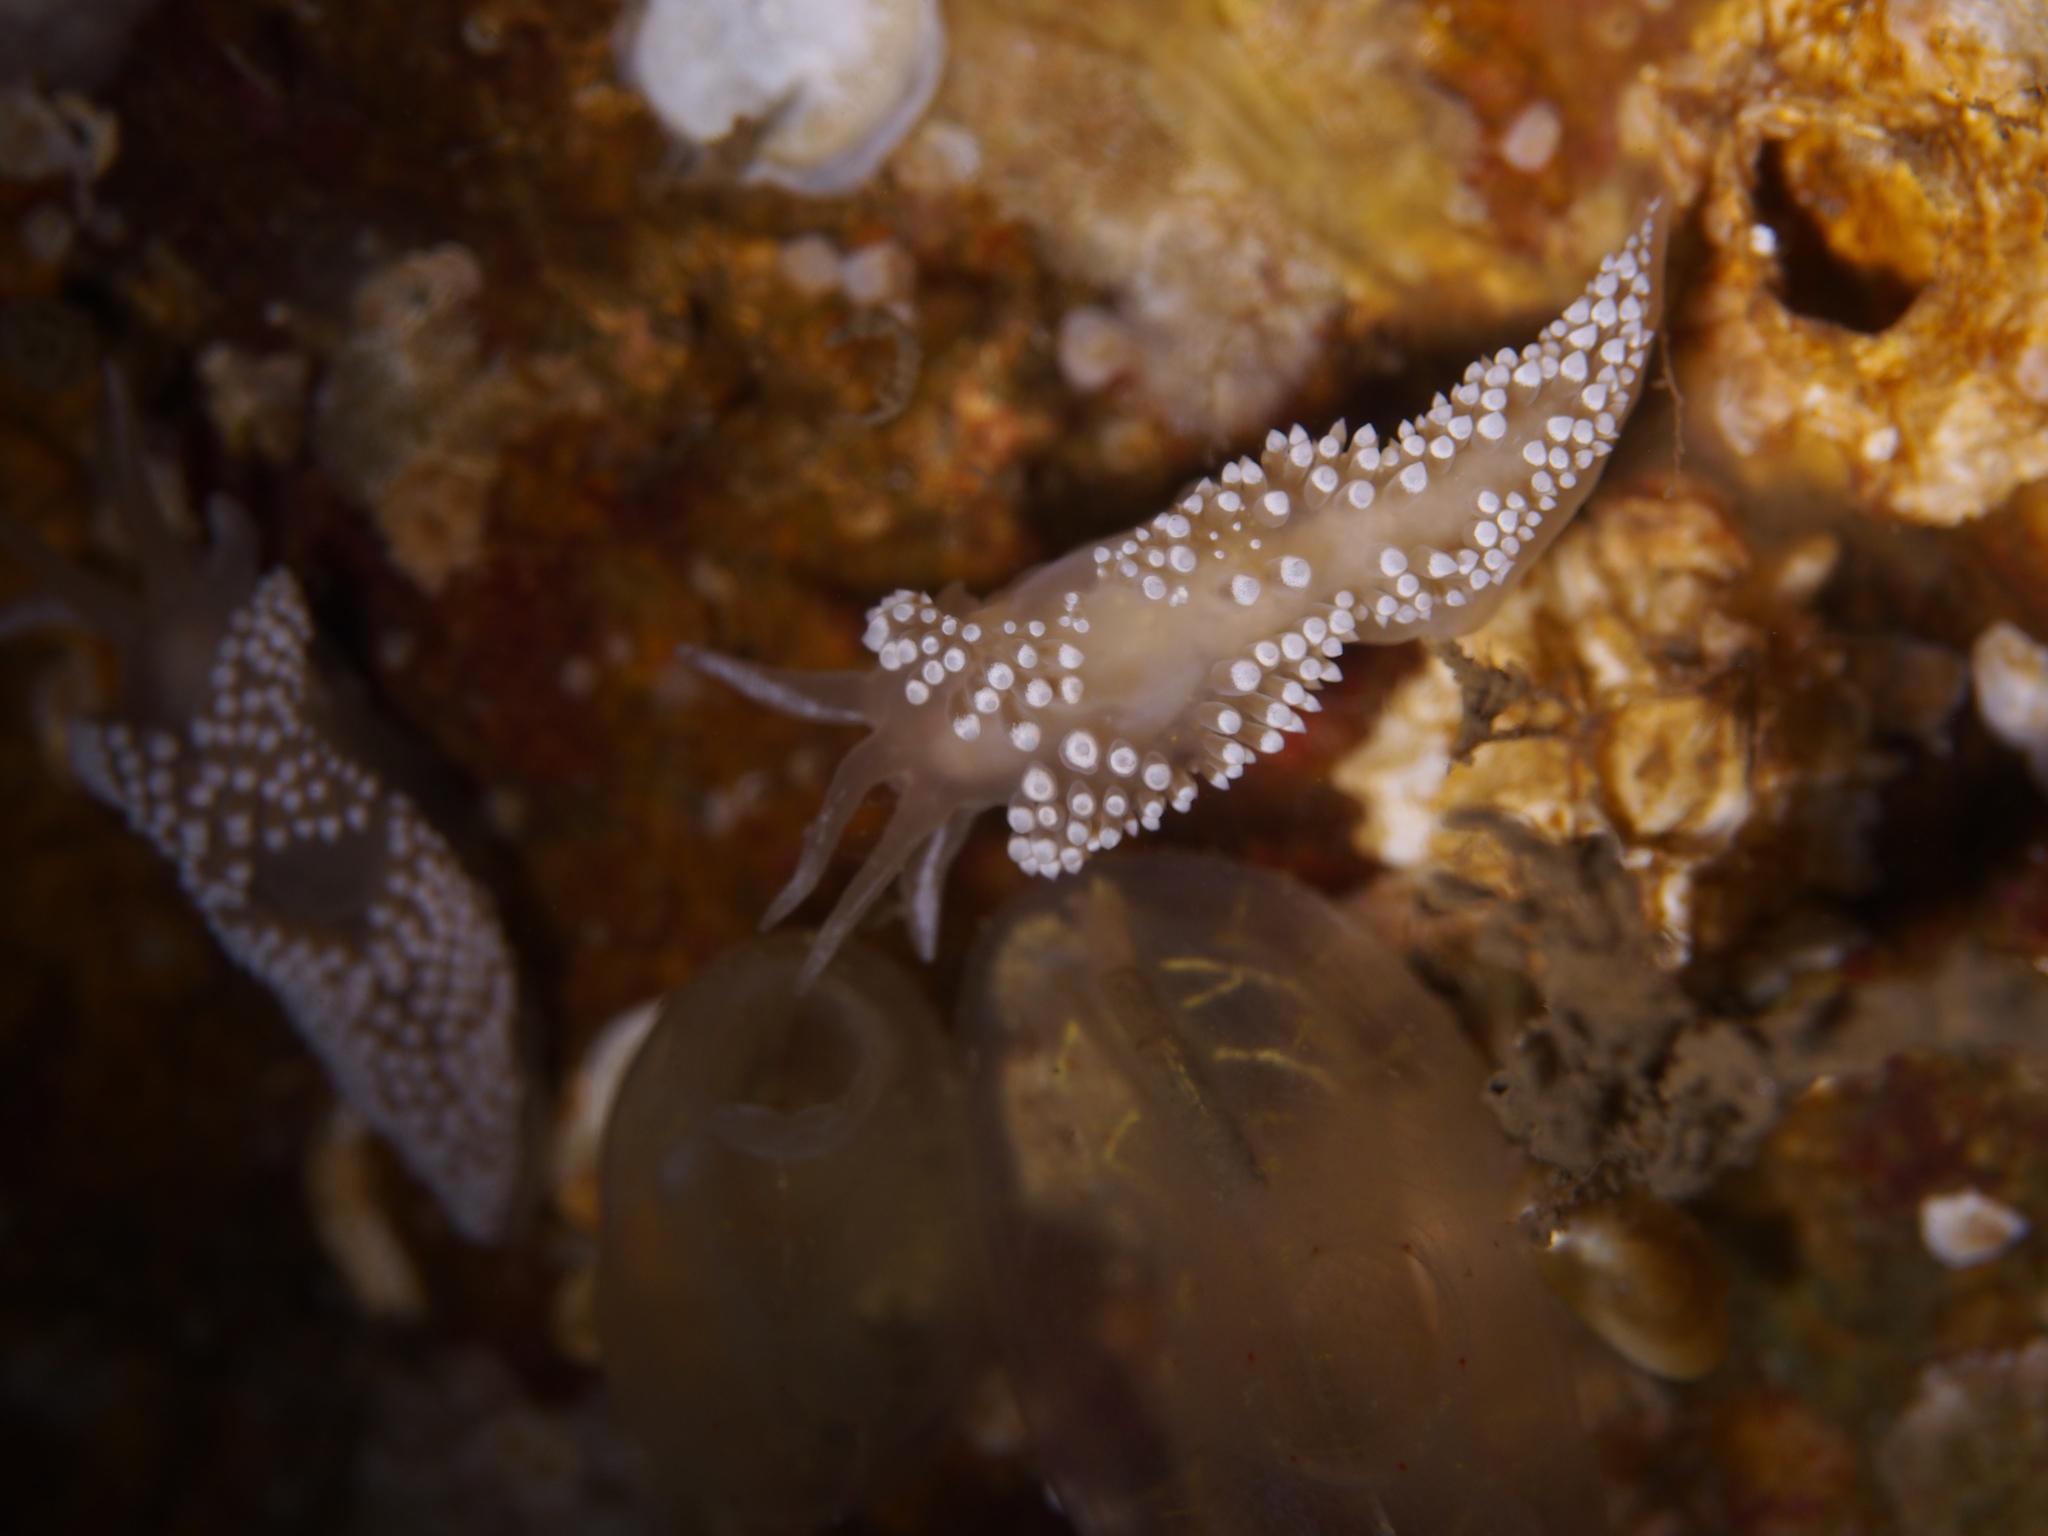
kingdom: Animalia
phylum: Mollusca
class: Gastropoda
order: Nudibranchia
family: Coryphellidae
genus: Coryphella
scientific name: Coryphella verrucosa
